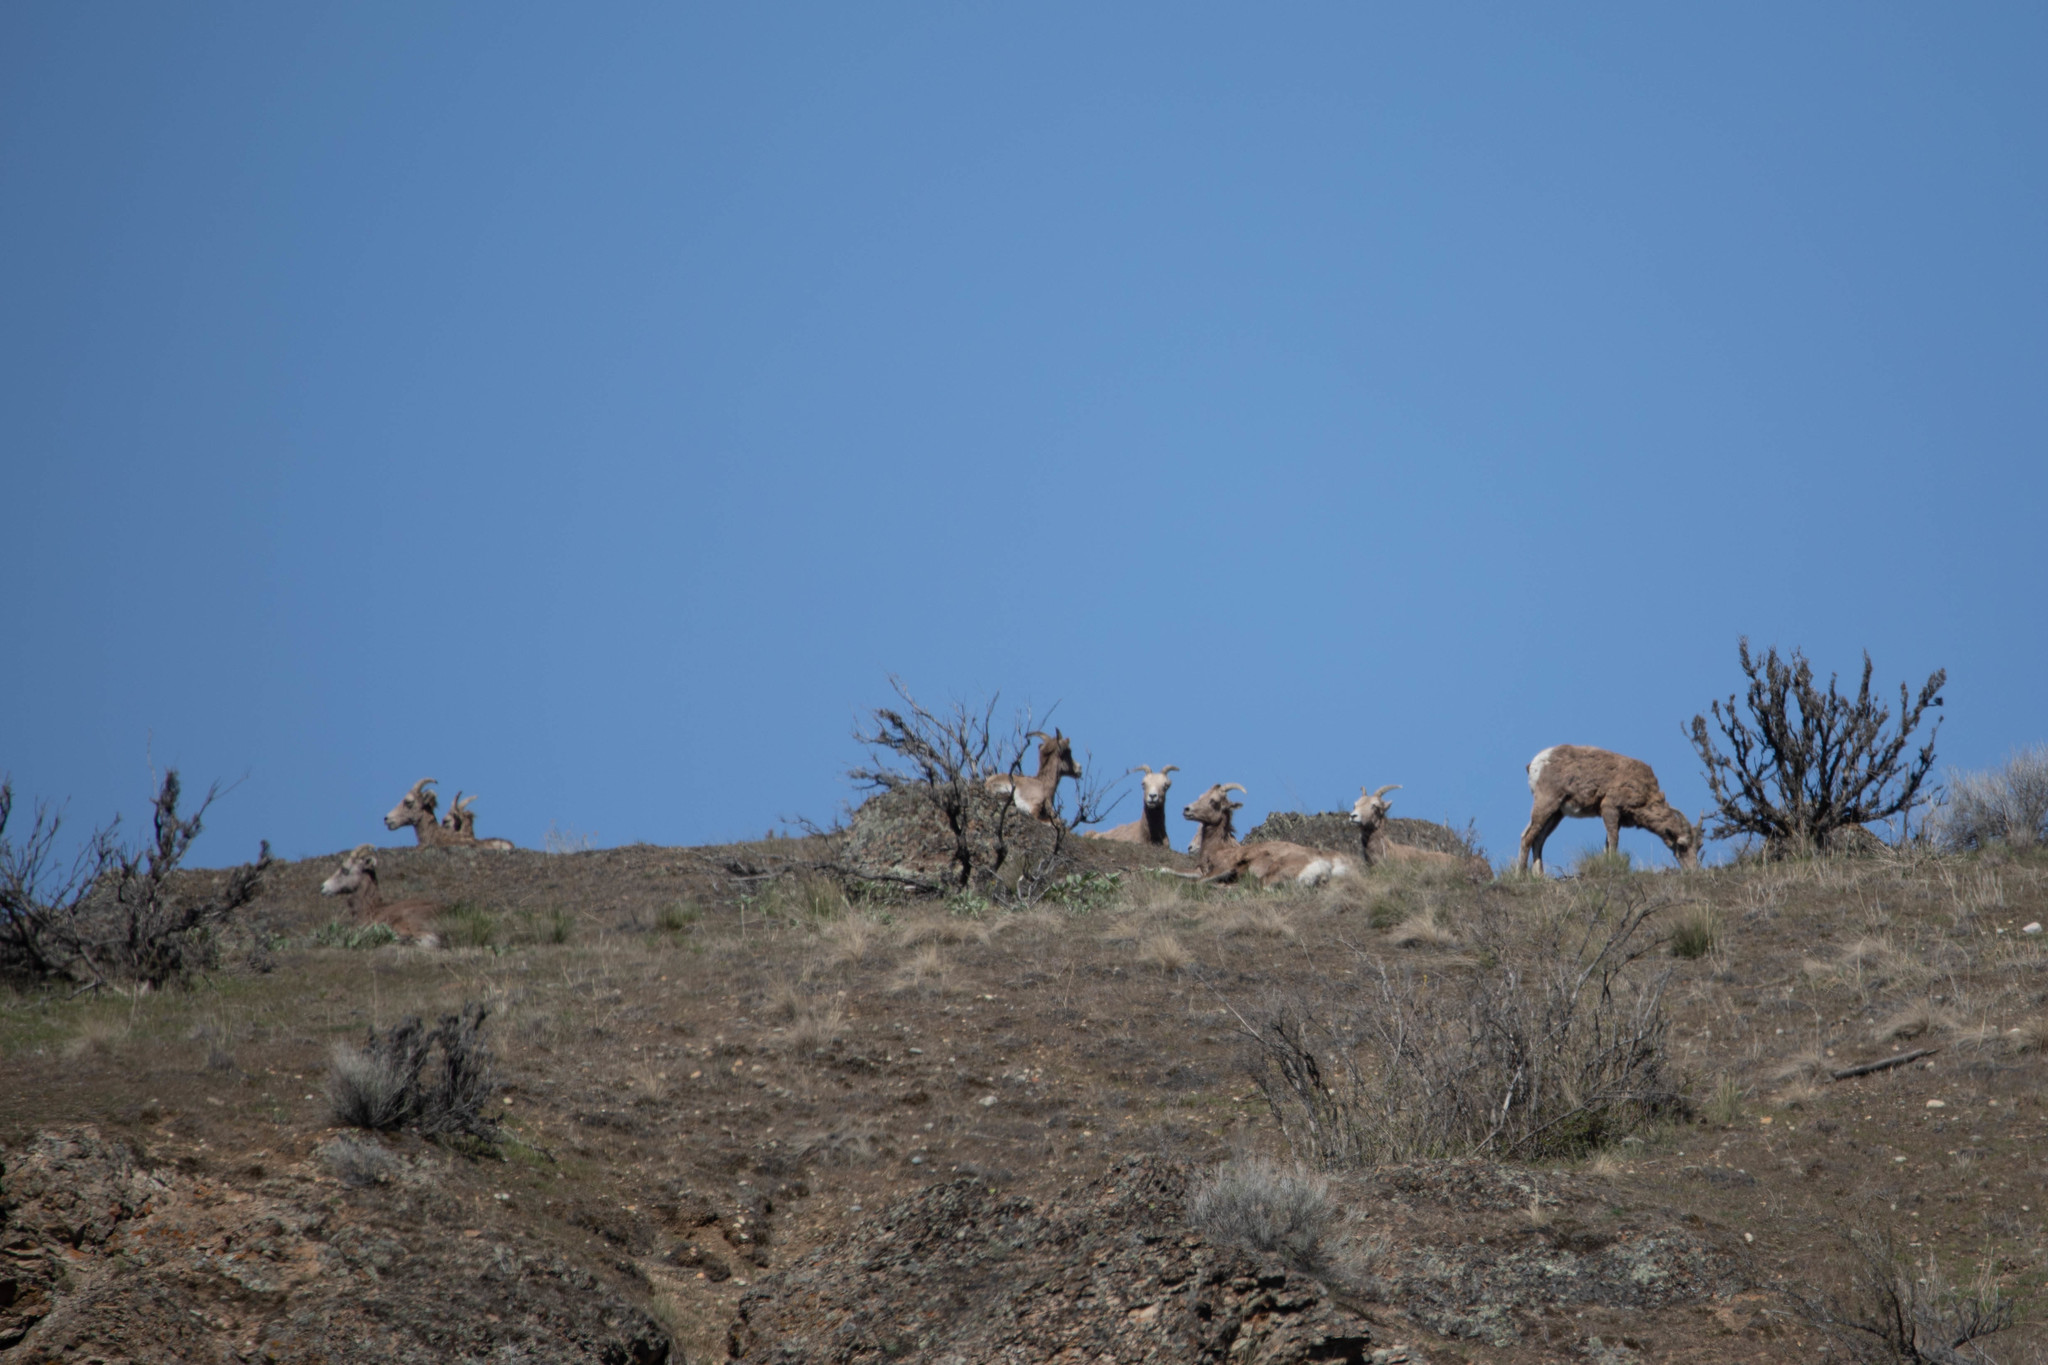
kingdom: Animalia
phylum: Chordata
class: Mammalia
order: Artiodactyla
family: Bovidae
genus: Ovis
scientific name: Ovis canadensis
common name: Bighorn sheep
